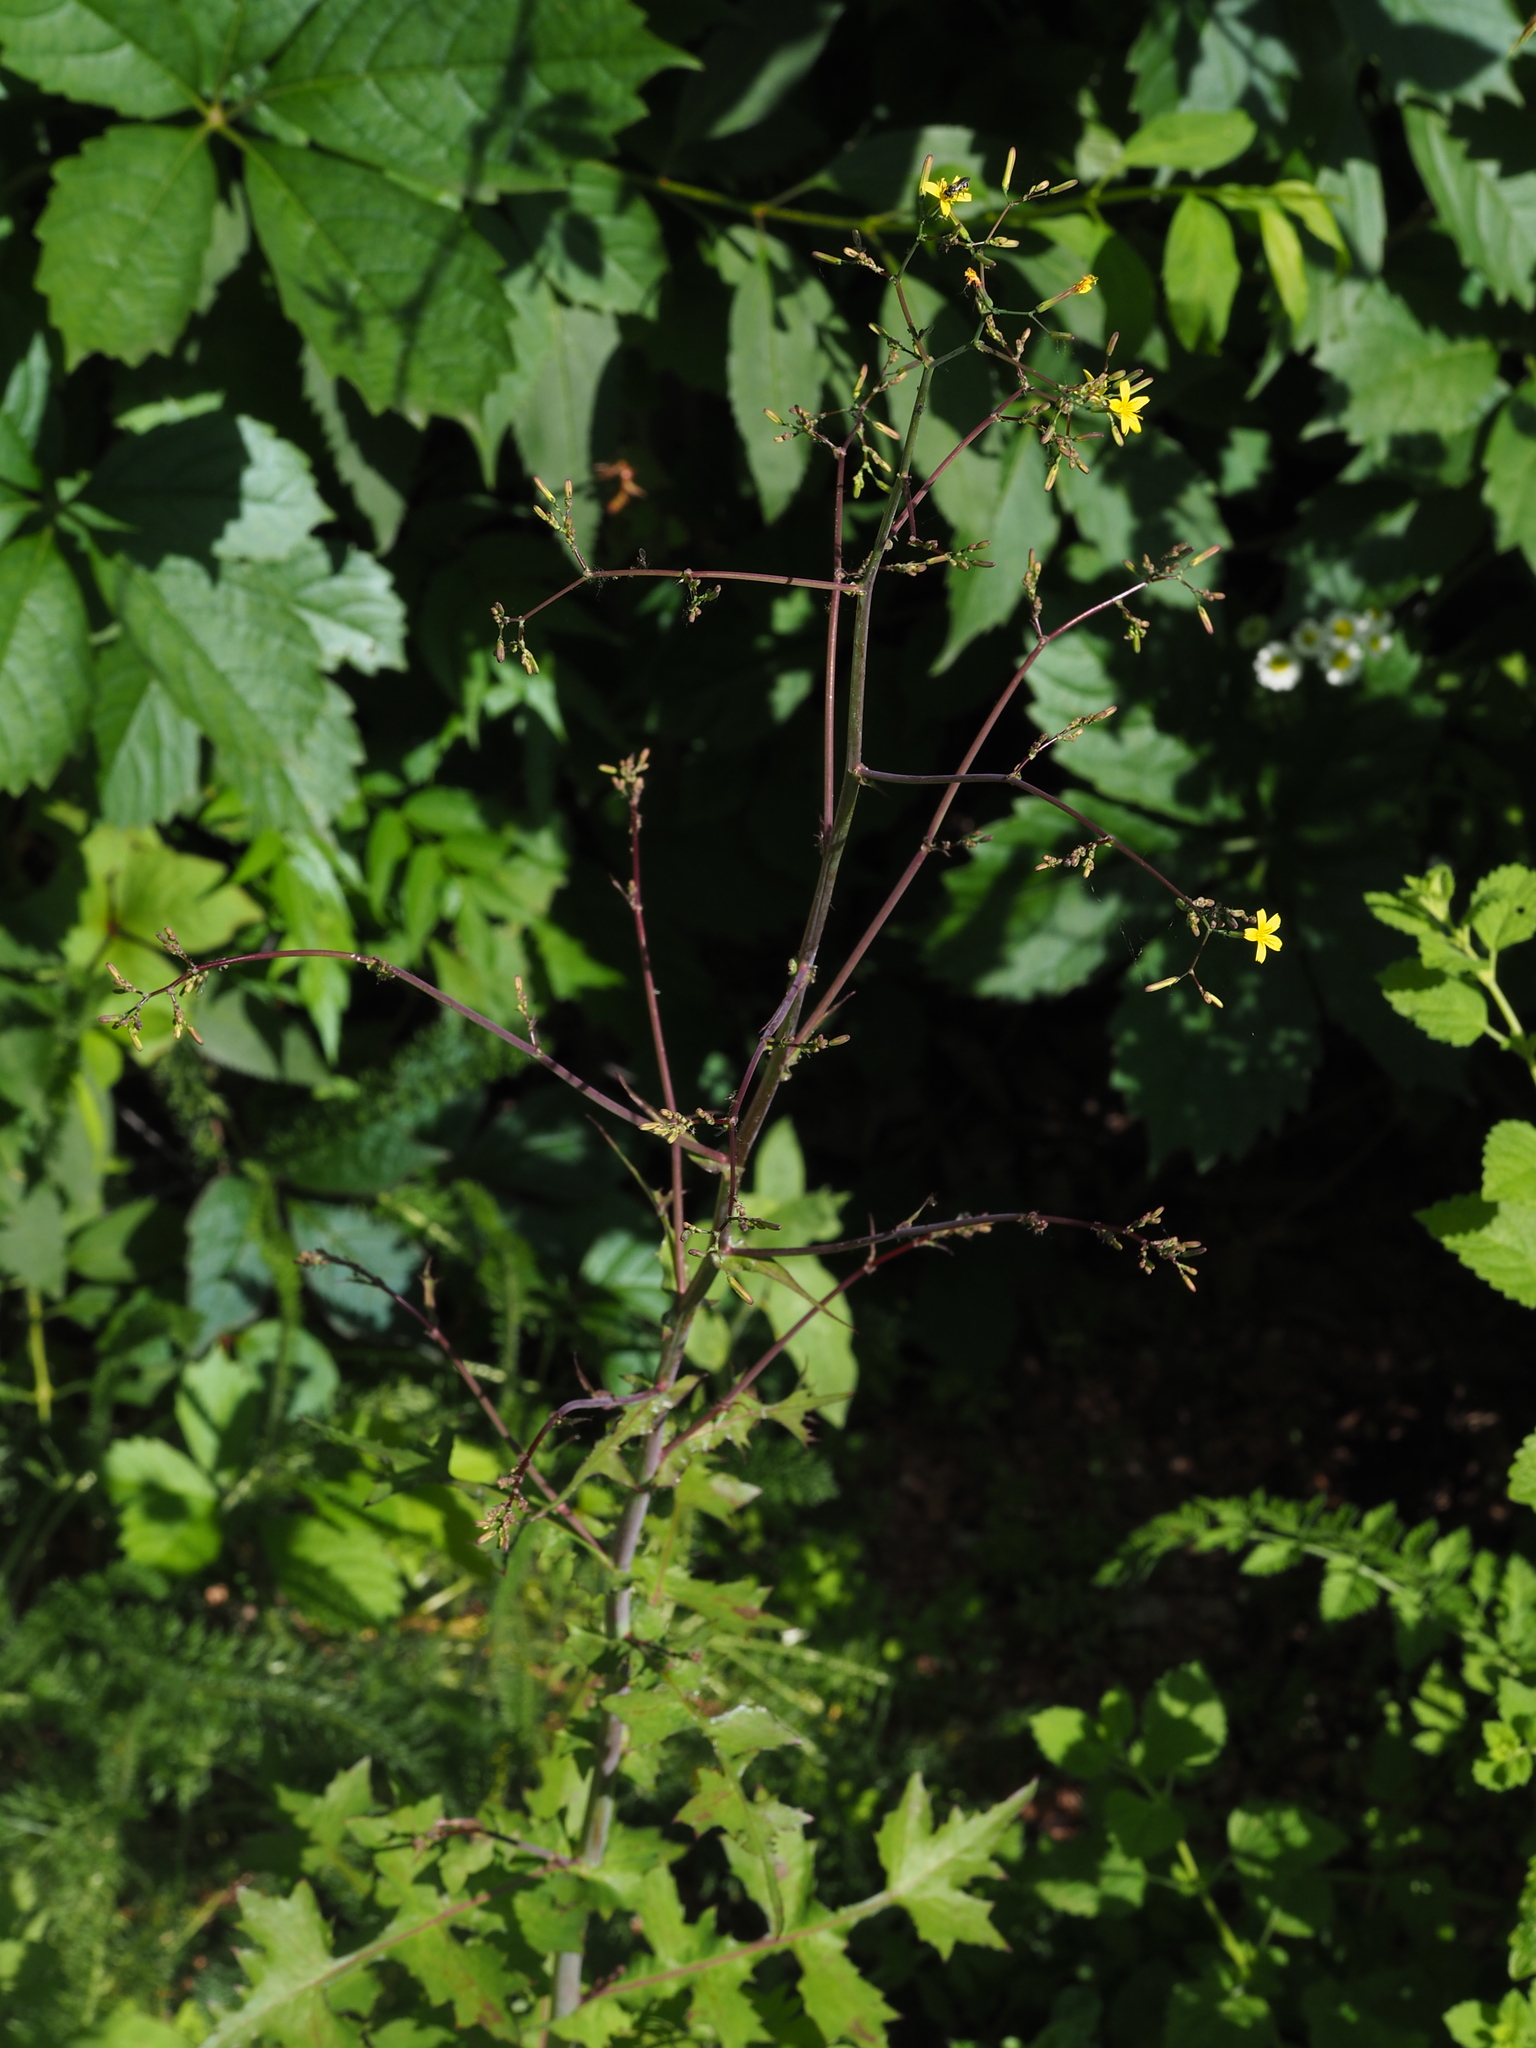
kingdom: Plantae
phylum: Tracheophyta
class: Magnoliopsida
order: Asterales
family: Asteraceae
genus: Mycelis
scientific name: Mycelis muralis
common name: Wall lettuce
